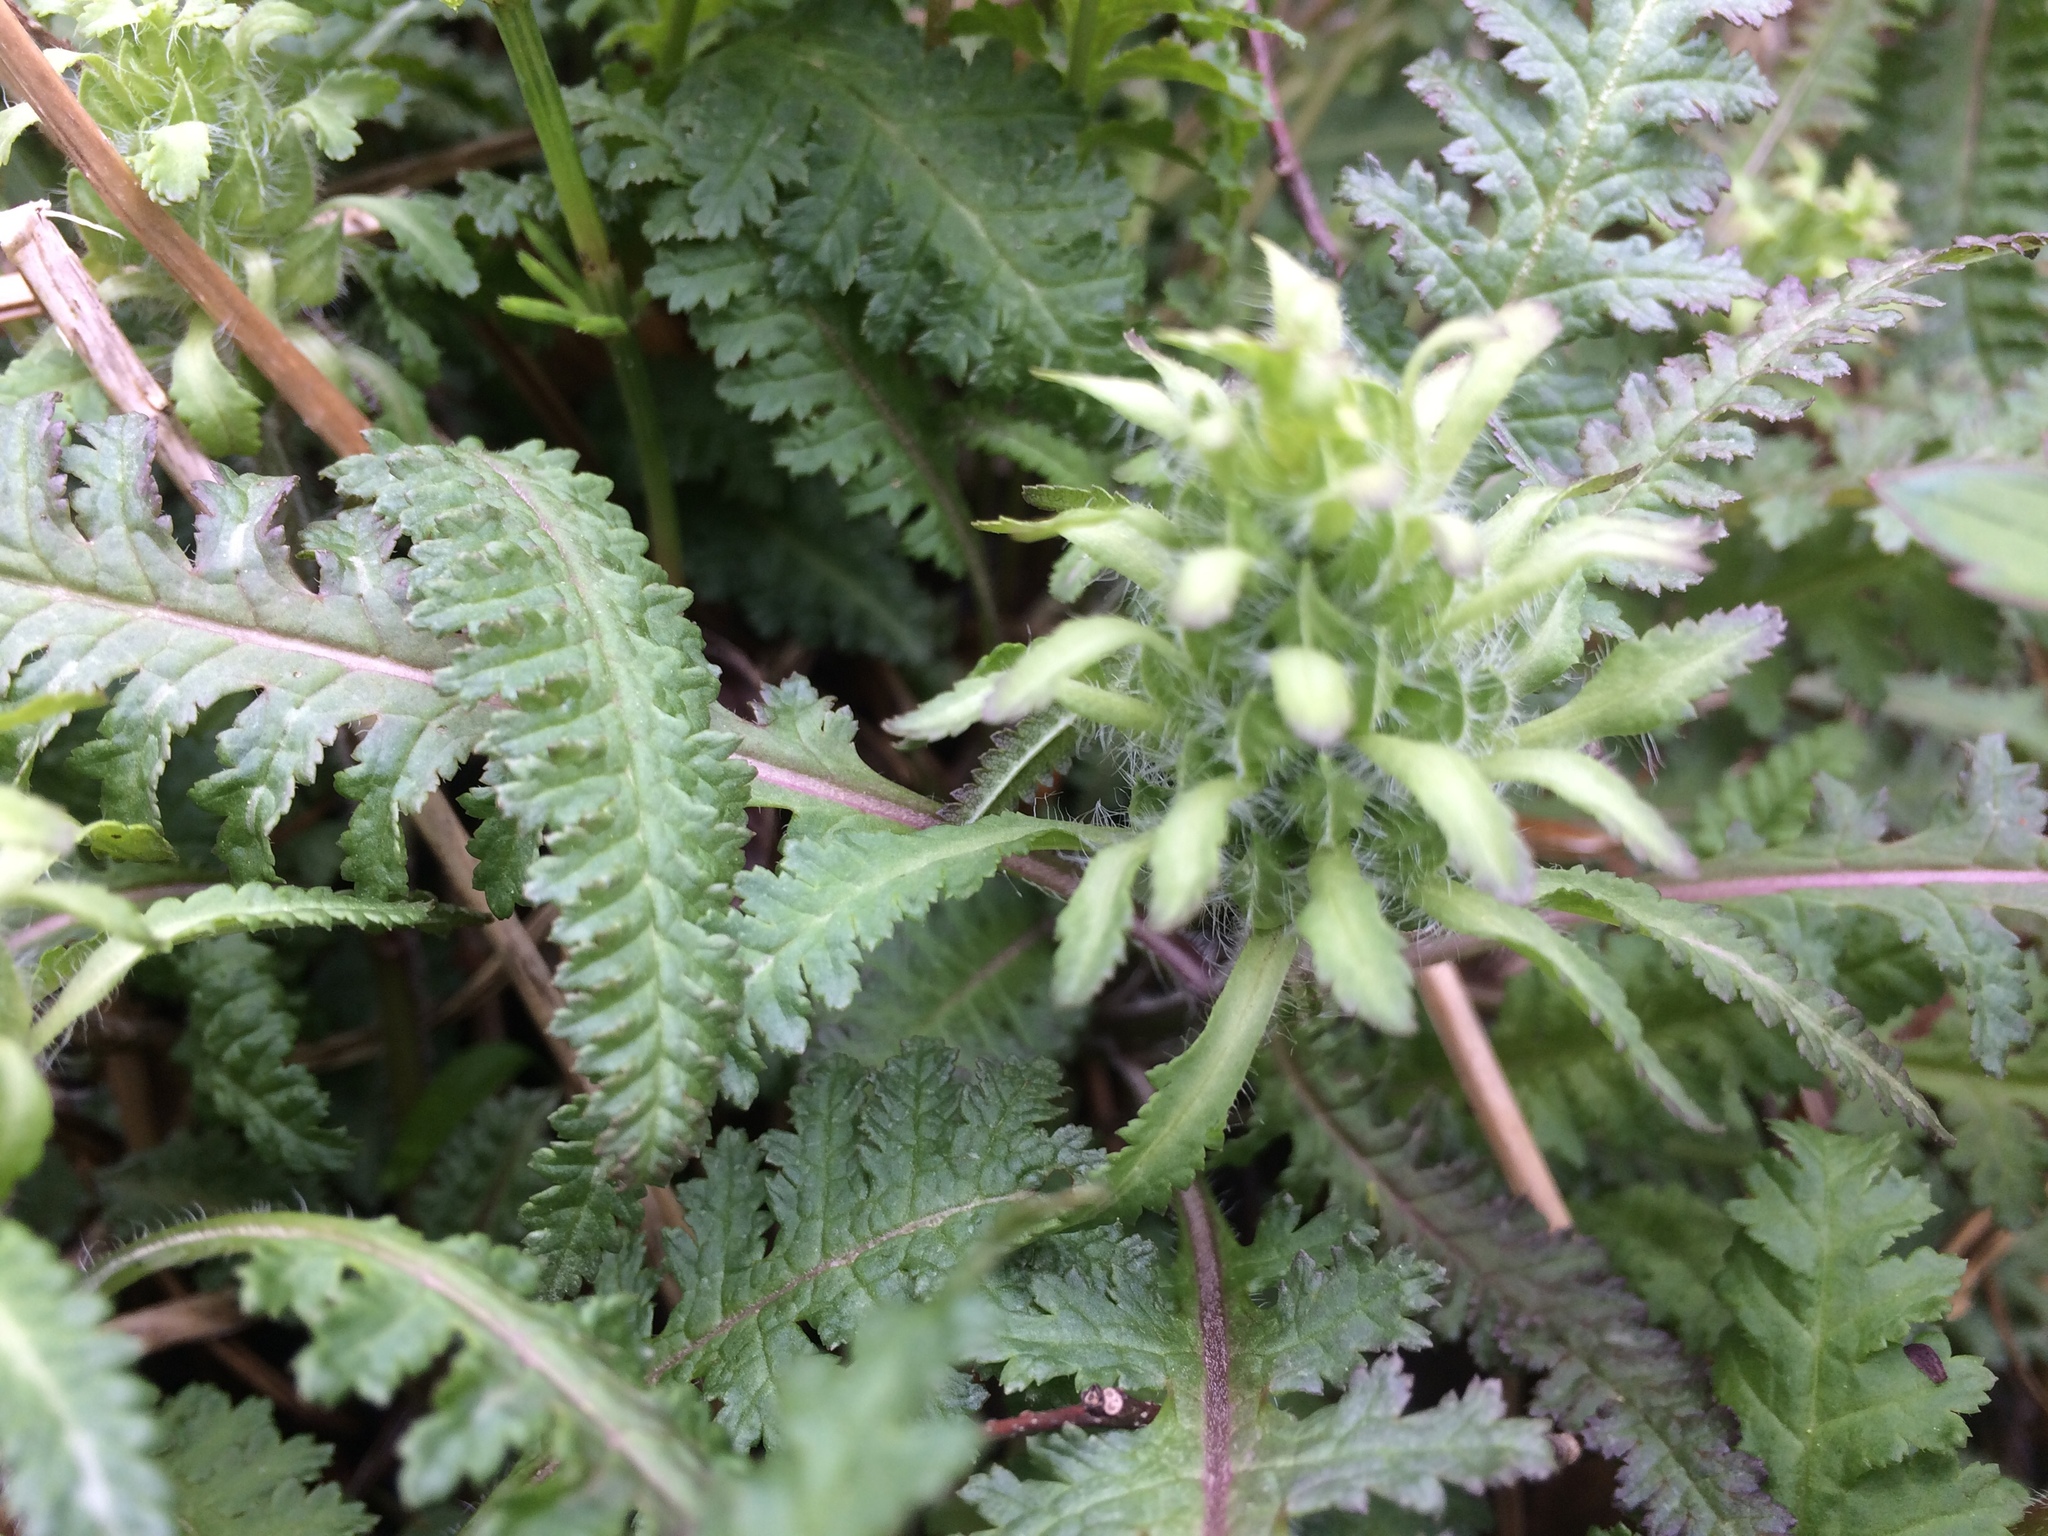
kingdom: Plantae
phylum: Tracheophyta
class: Magnoliopsida
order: Lamiales
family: Orobanchaceae
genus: Pedicularis
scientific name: Pedicularis canadensis
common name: Early lousewort
